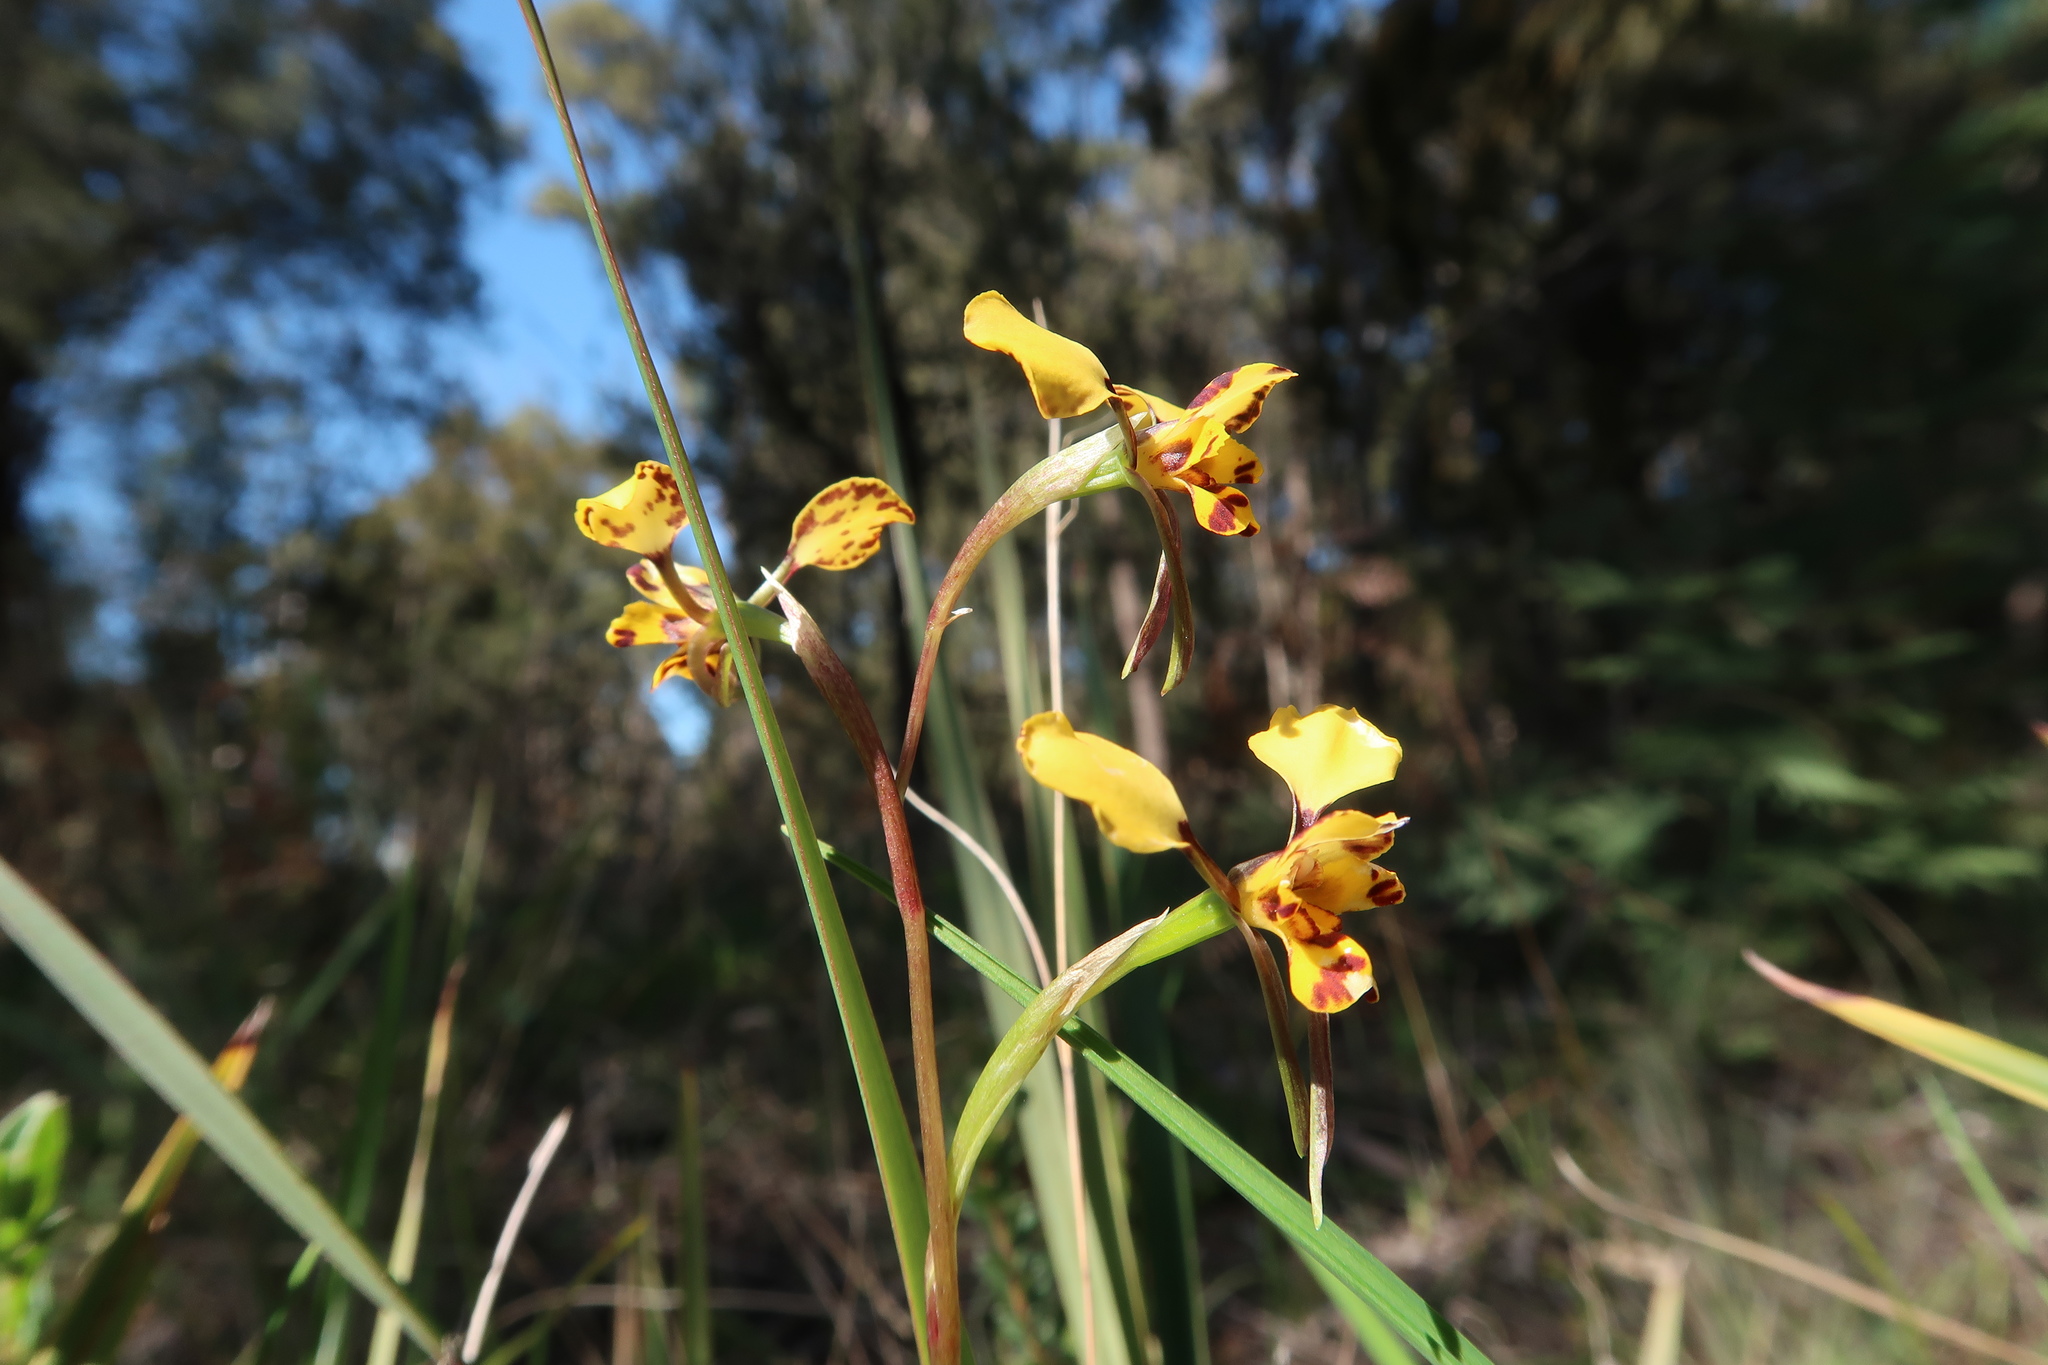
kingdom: Plantae
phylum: Tracheophyta
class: Liliopsida
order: Asparagales
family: Orchidaceae
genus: Diuris
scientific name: Diuris pardina
